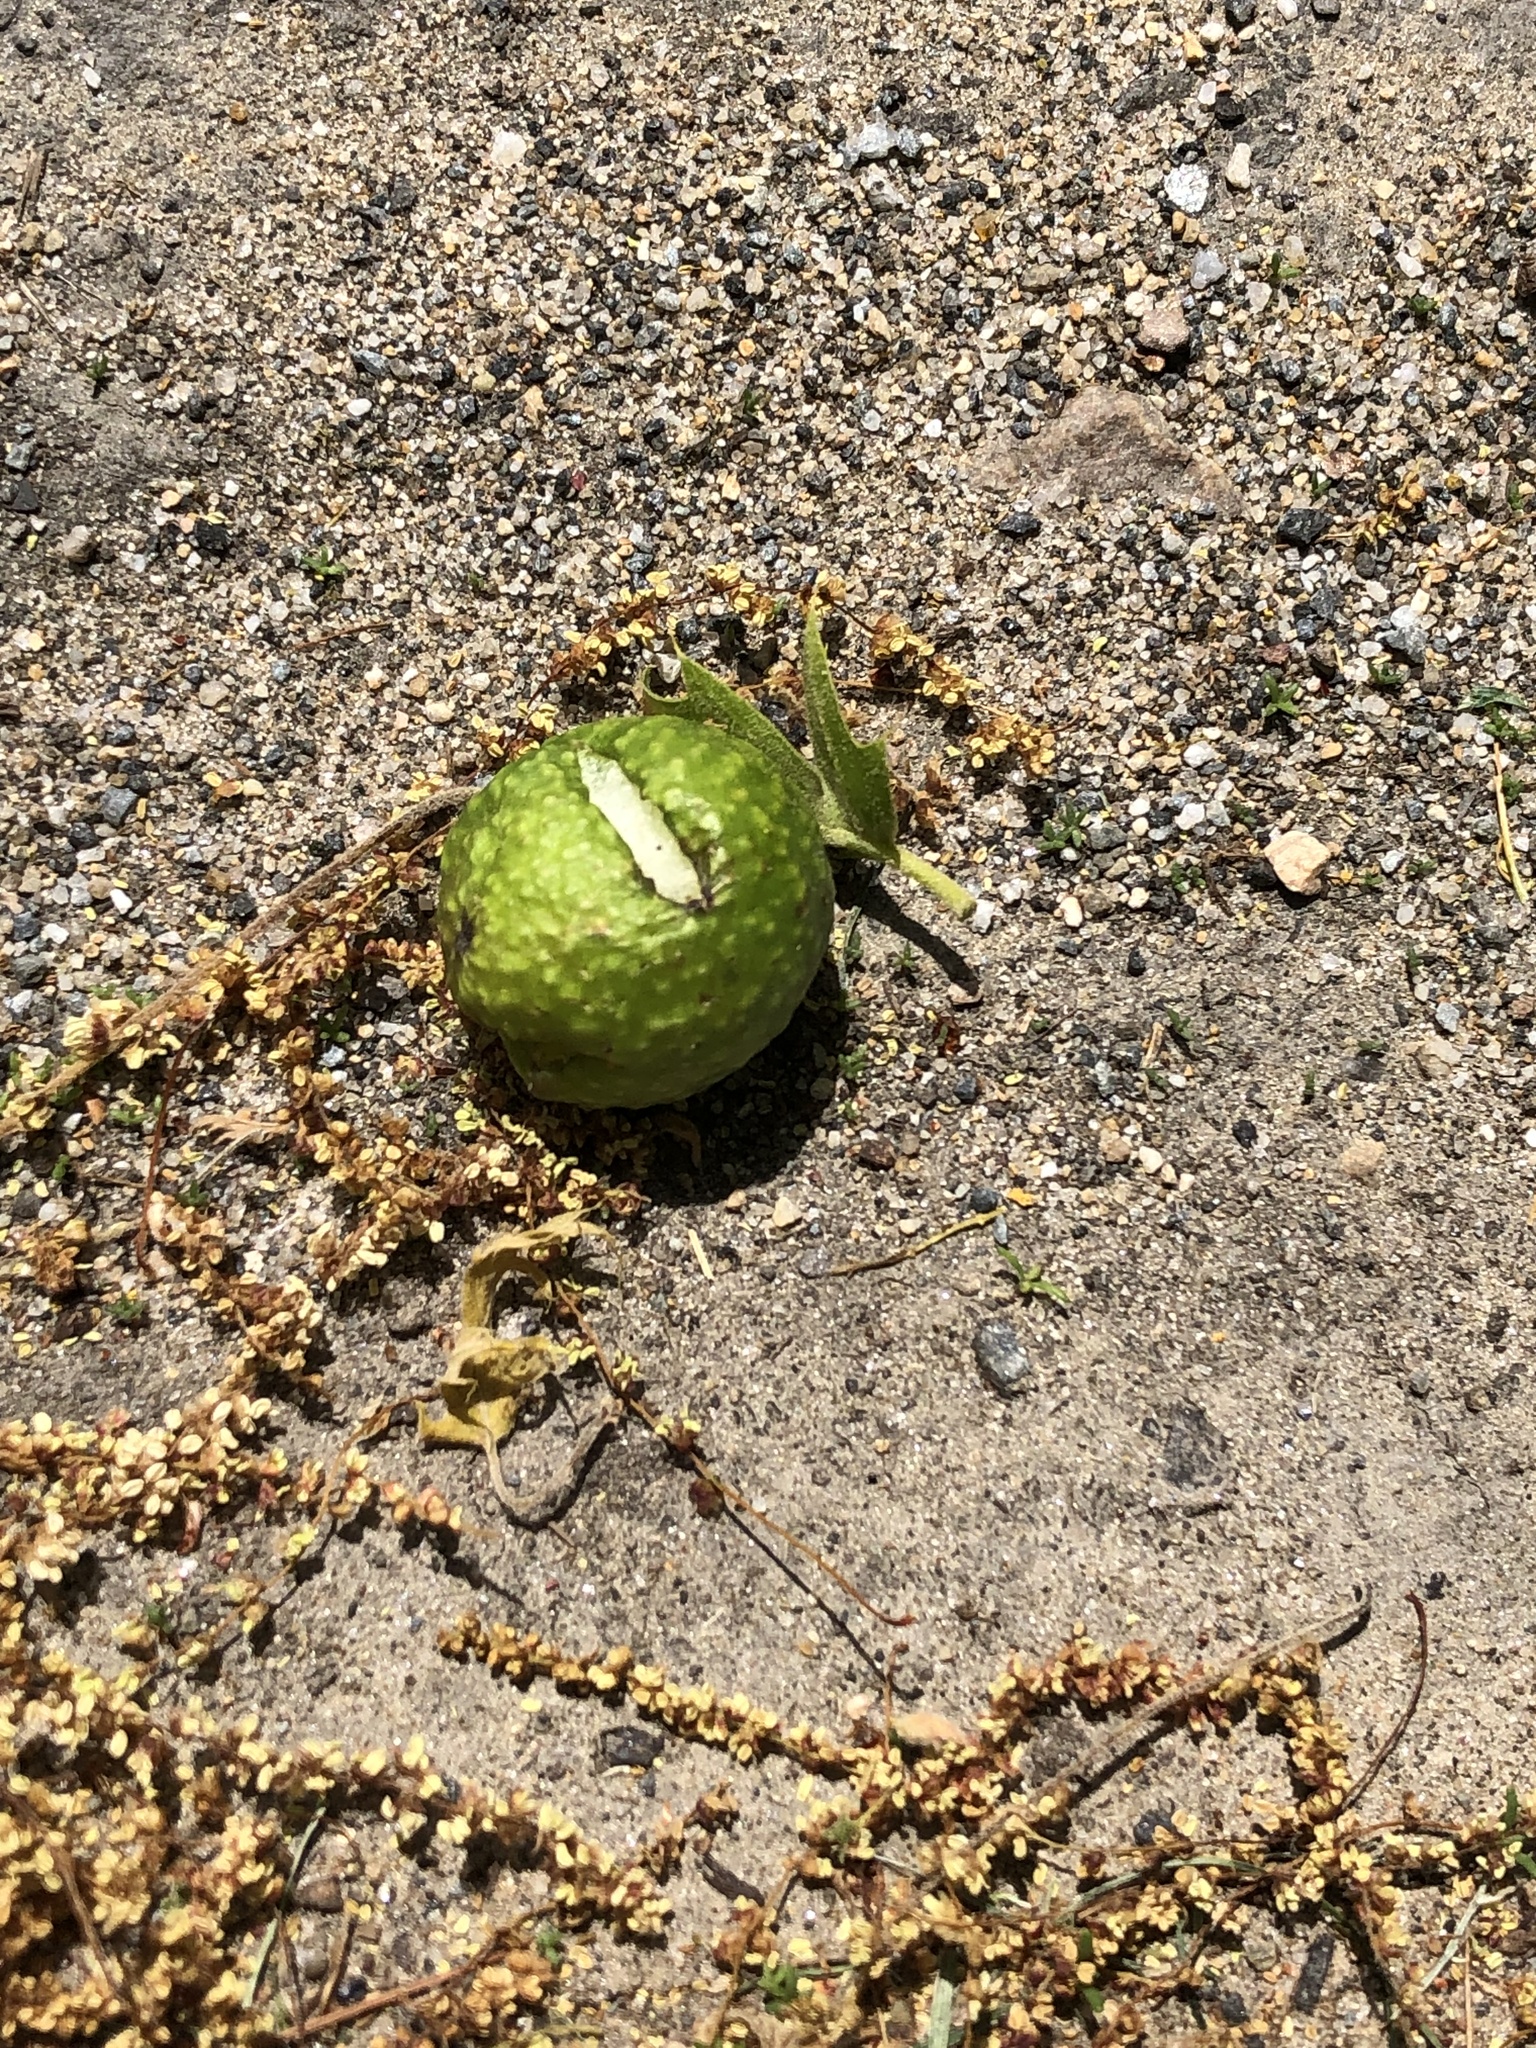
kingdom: Animalia
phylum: Arthropoda
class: Insecta
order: Hymenoptera
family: Cynipidae
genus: Amphibolips
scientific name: Amphibolips
